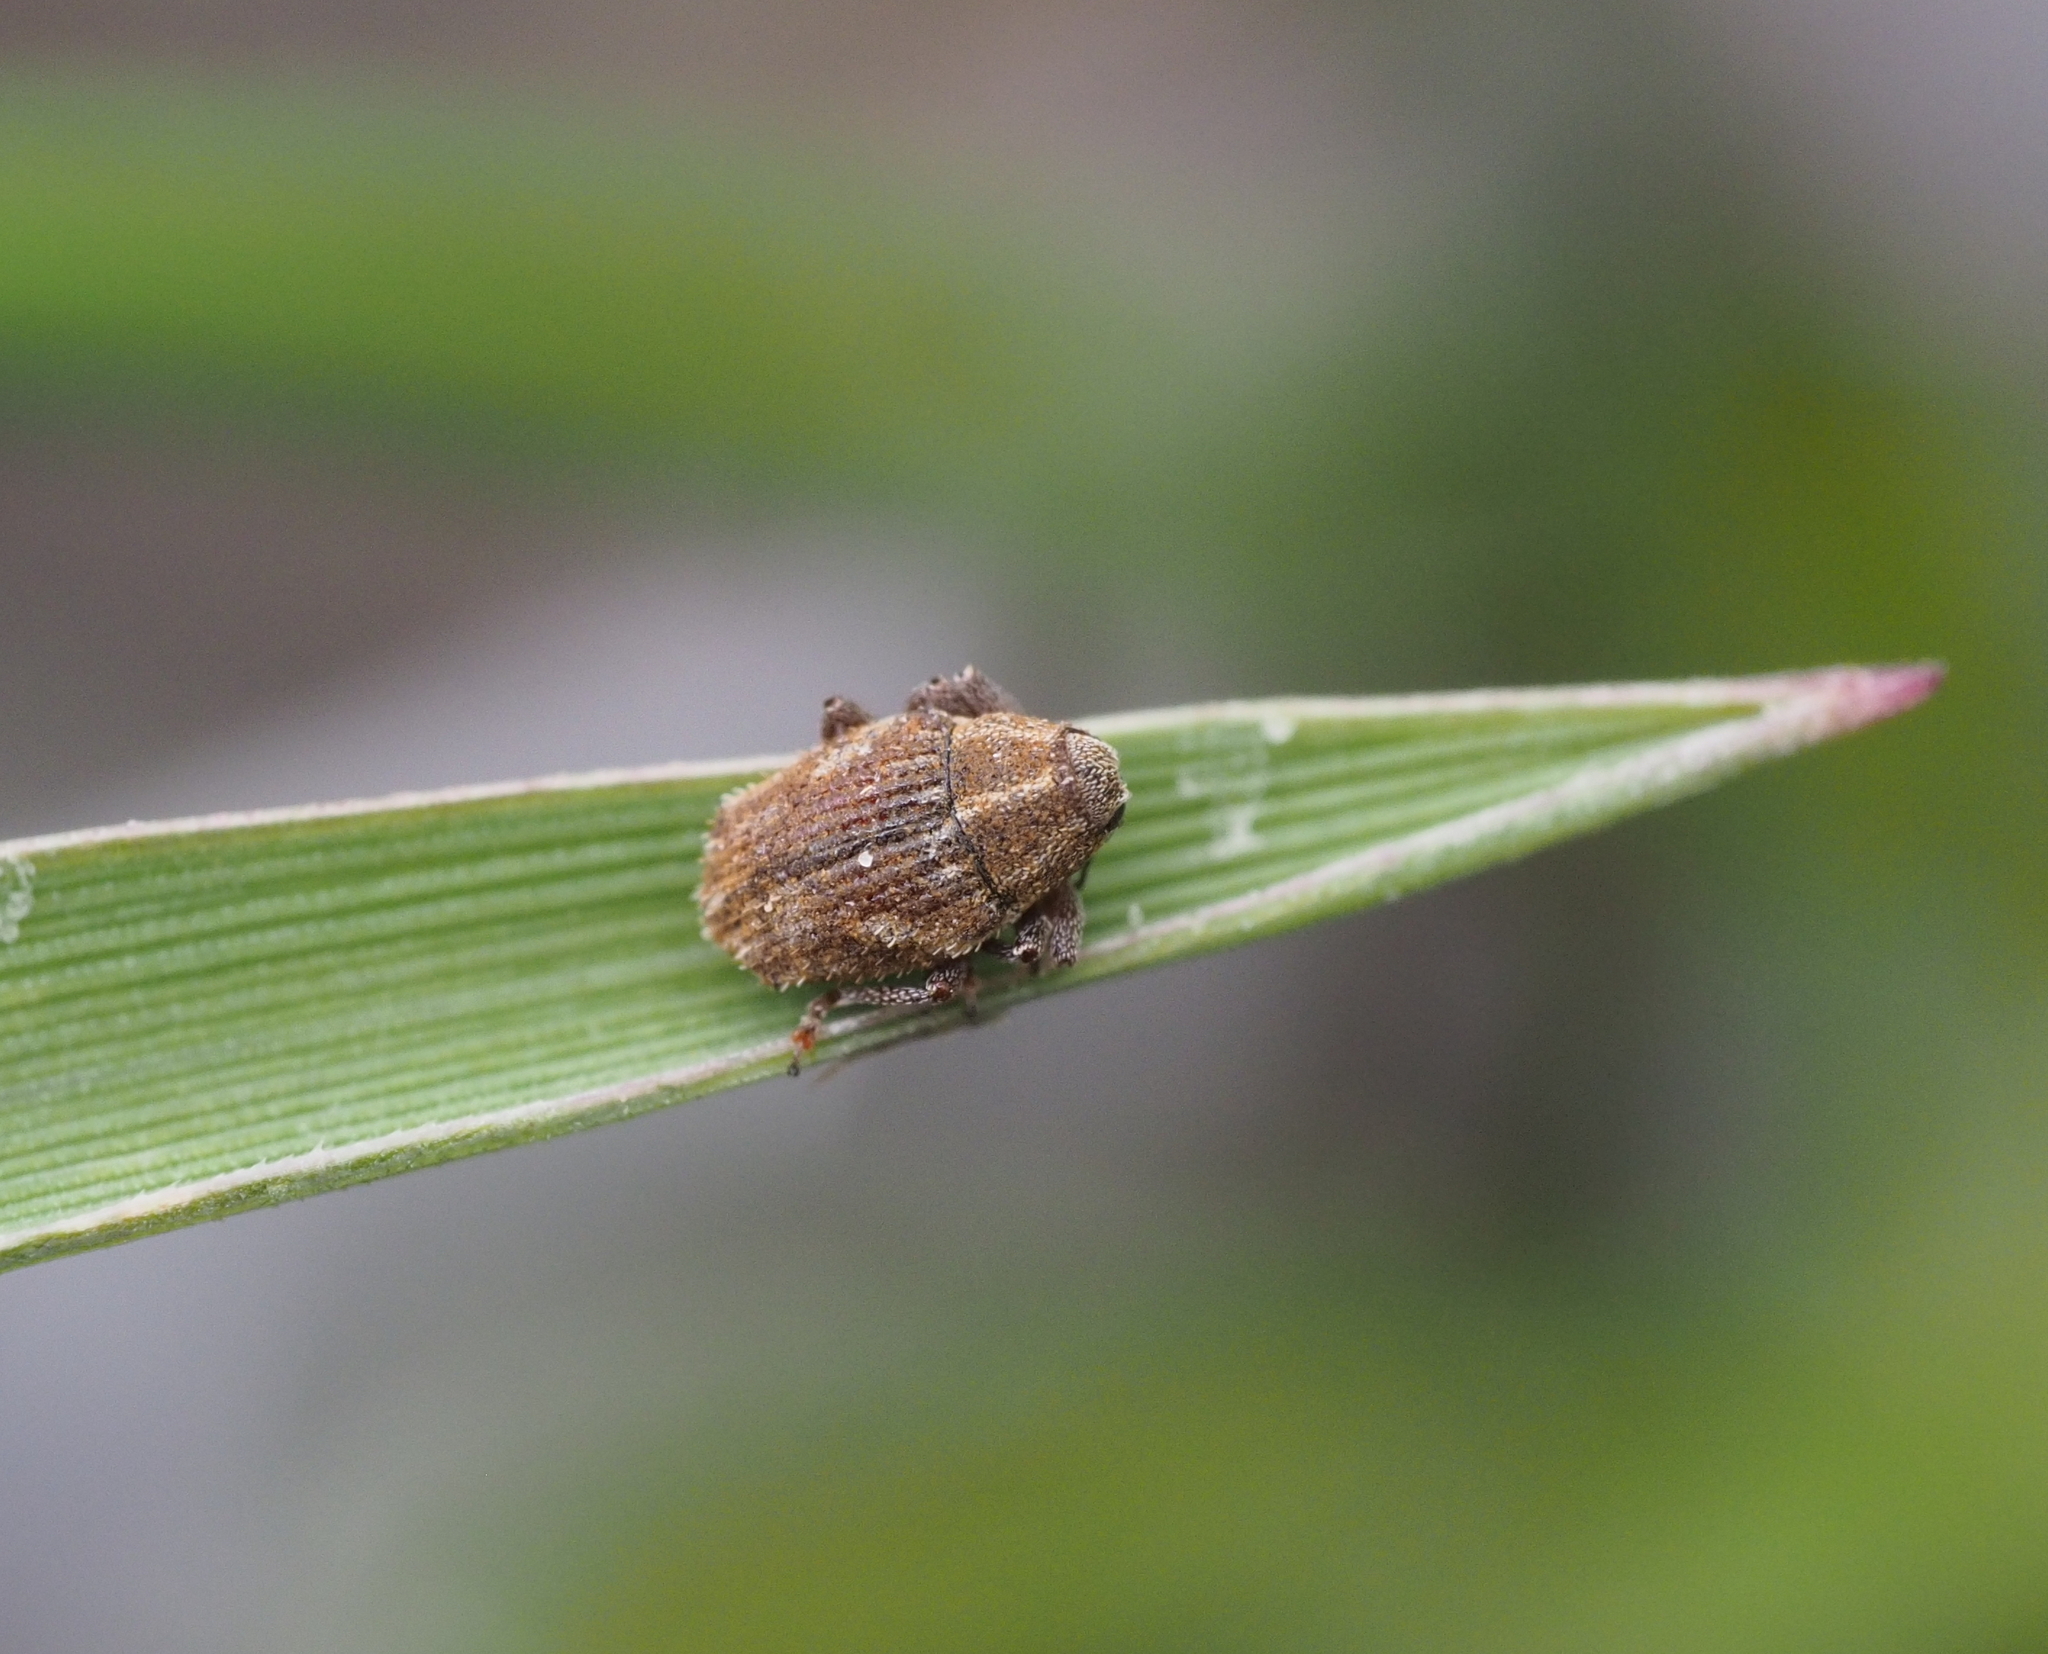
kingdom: Animalia
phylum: Arthropoda
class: Insecta
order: Coleoptera
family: Curculionidae
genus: Trichosirocalus
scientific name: Trichosirocalus troglodytes
